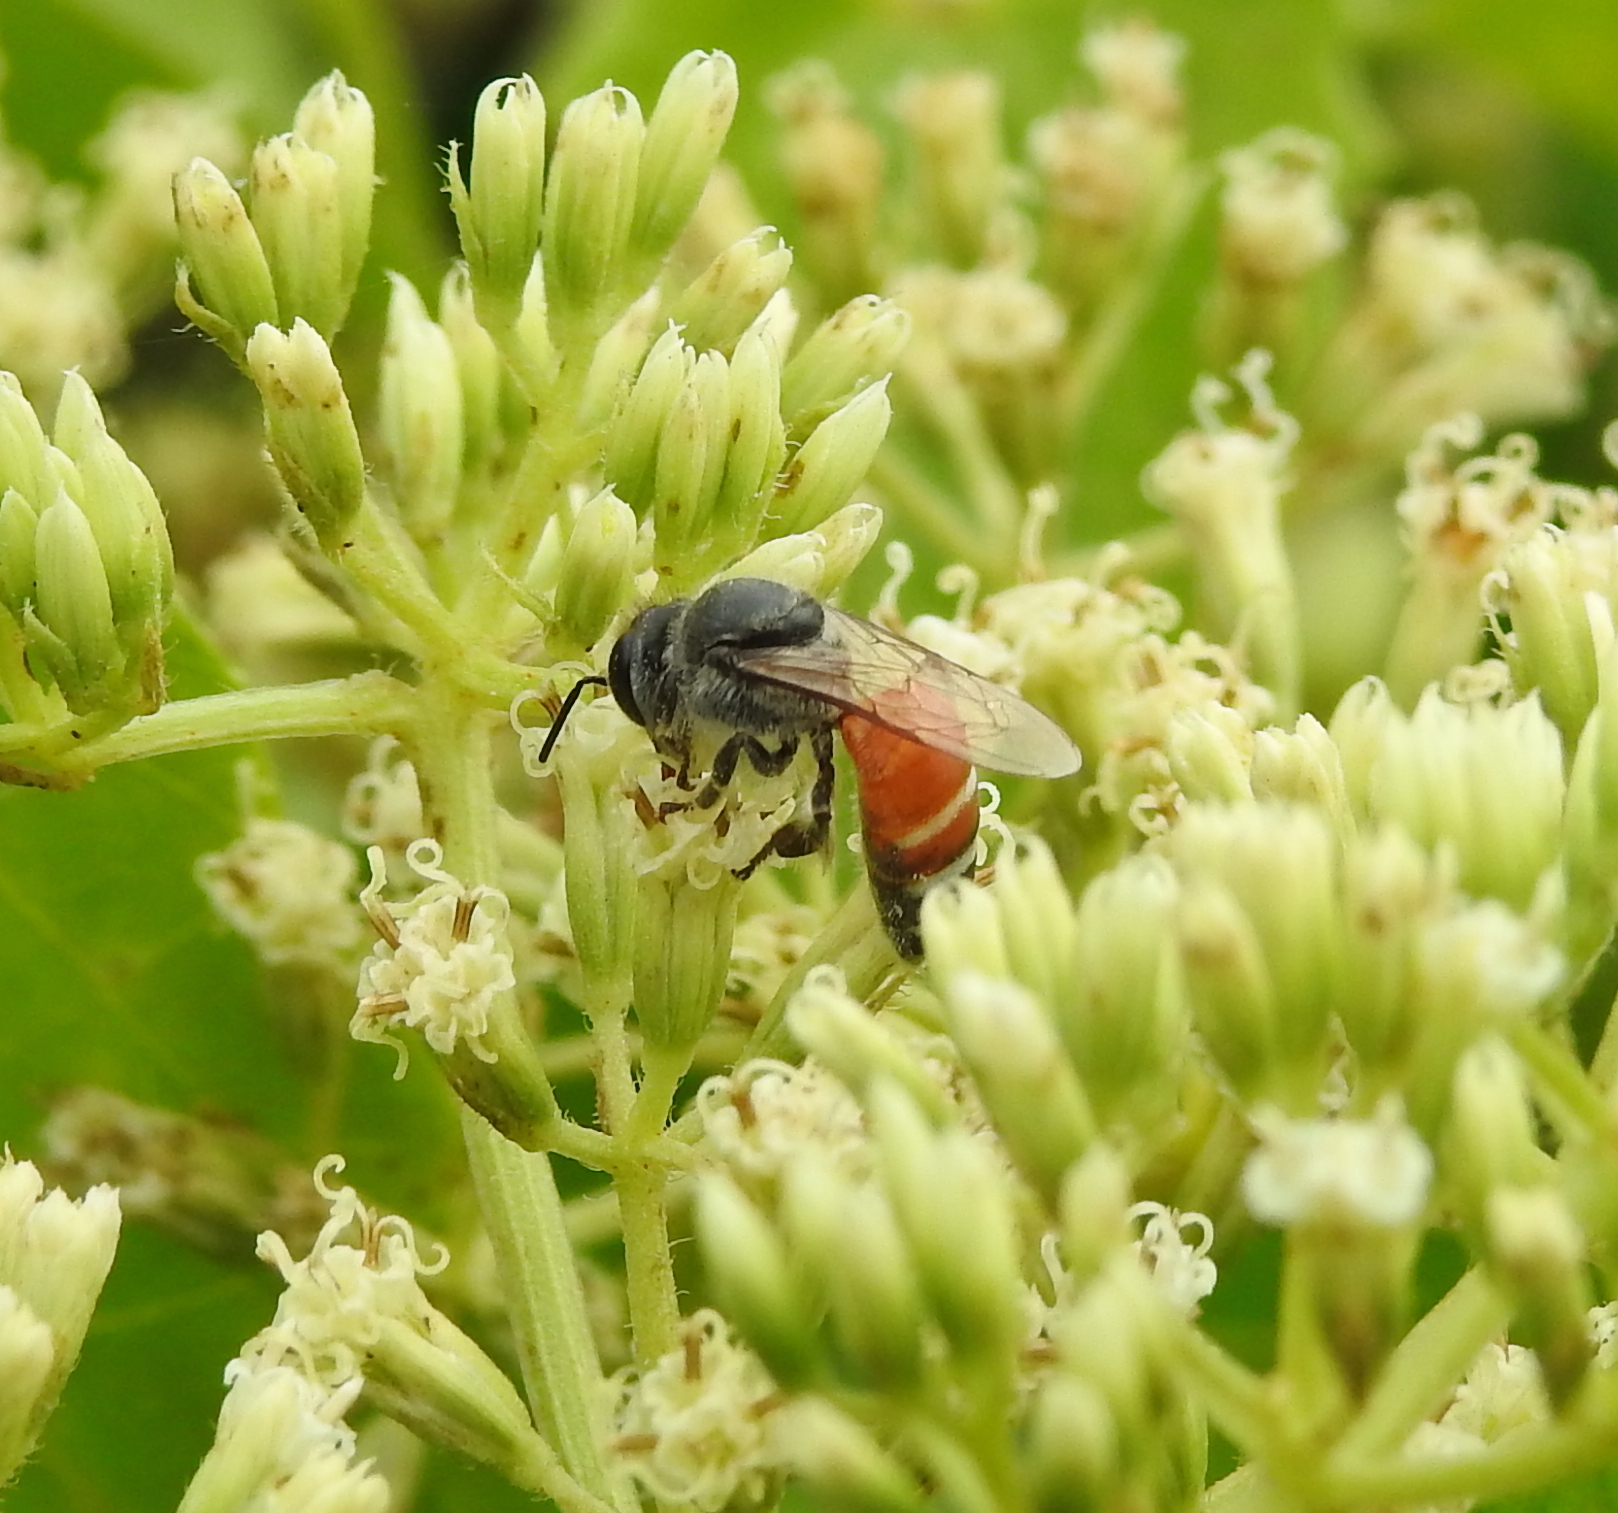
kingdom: Animalia
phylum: Arthropoda
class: Insecta
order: Hymenoptera
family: Apidae
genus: Apis
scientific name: Apis florea
